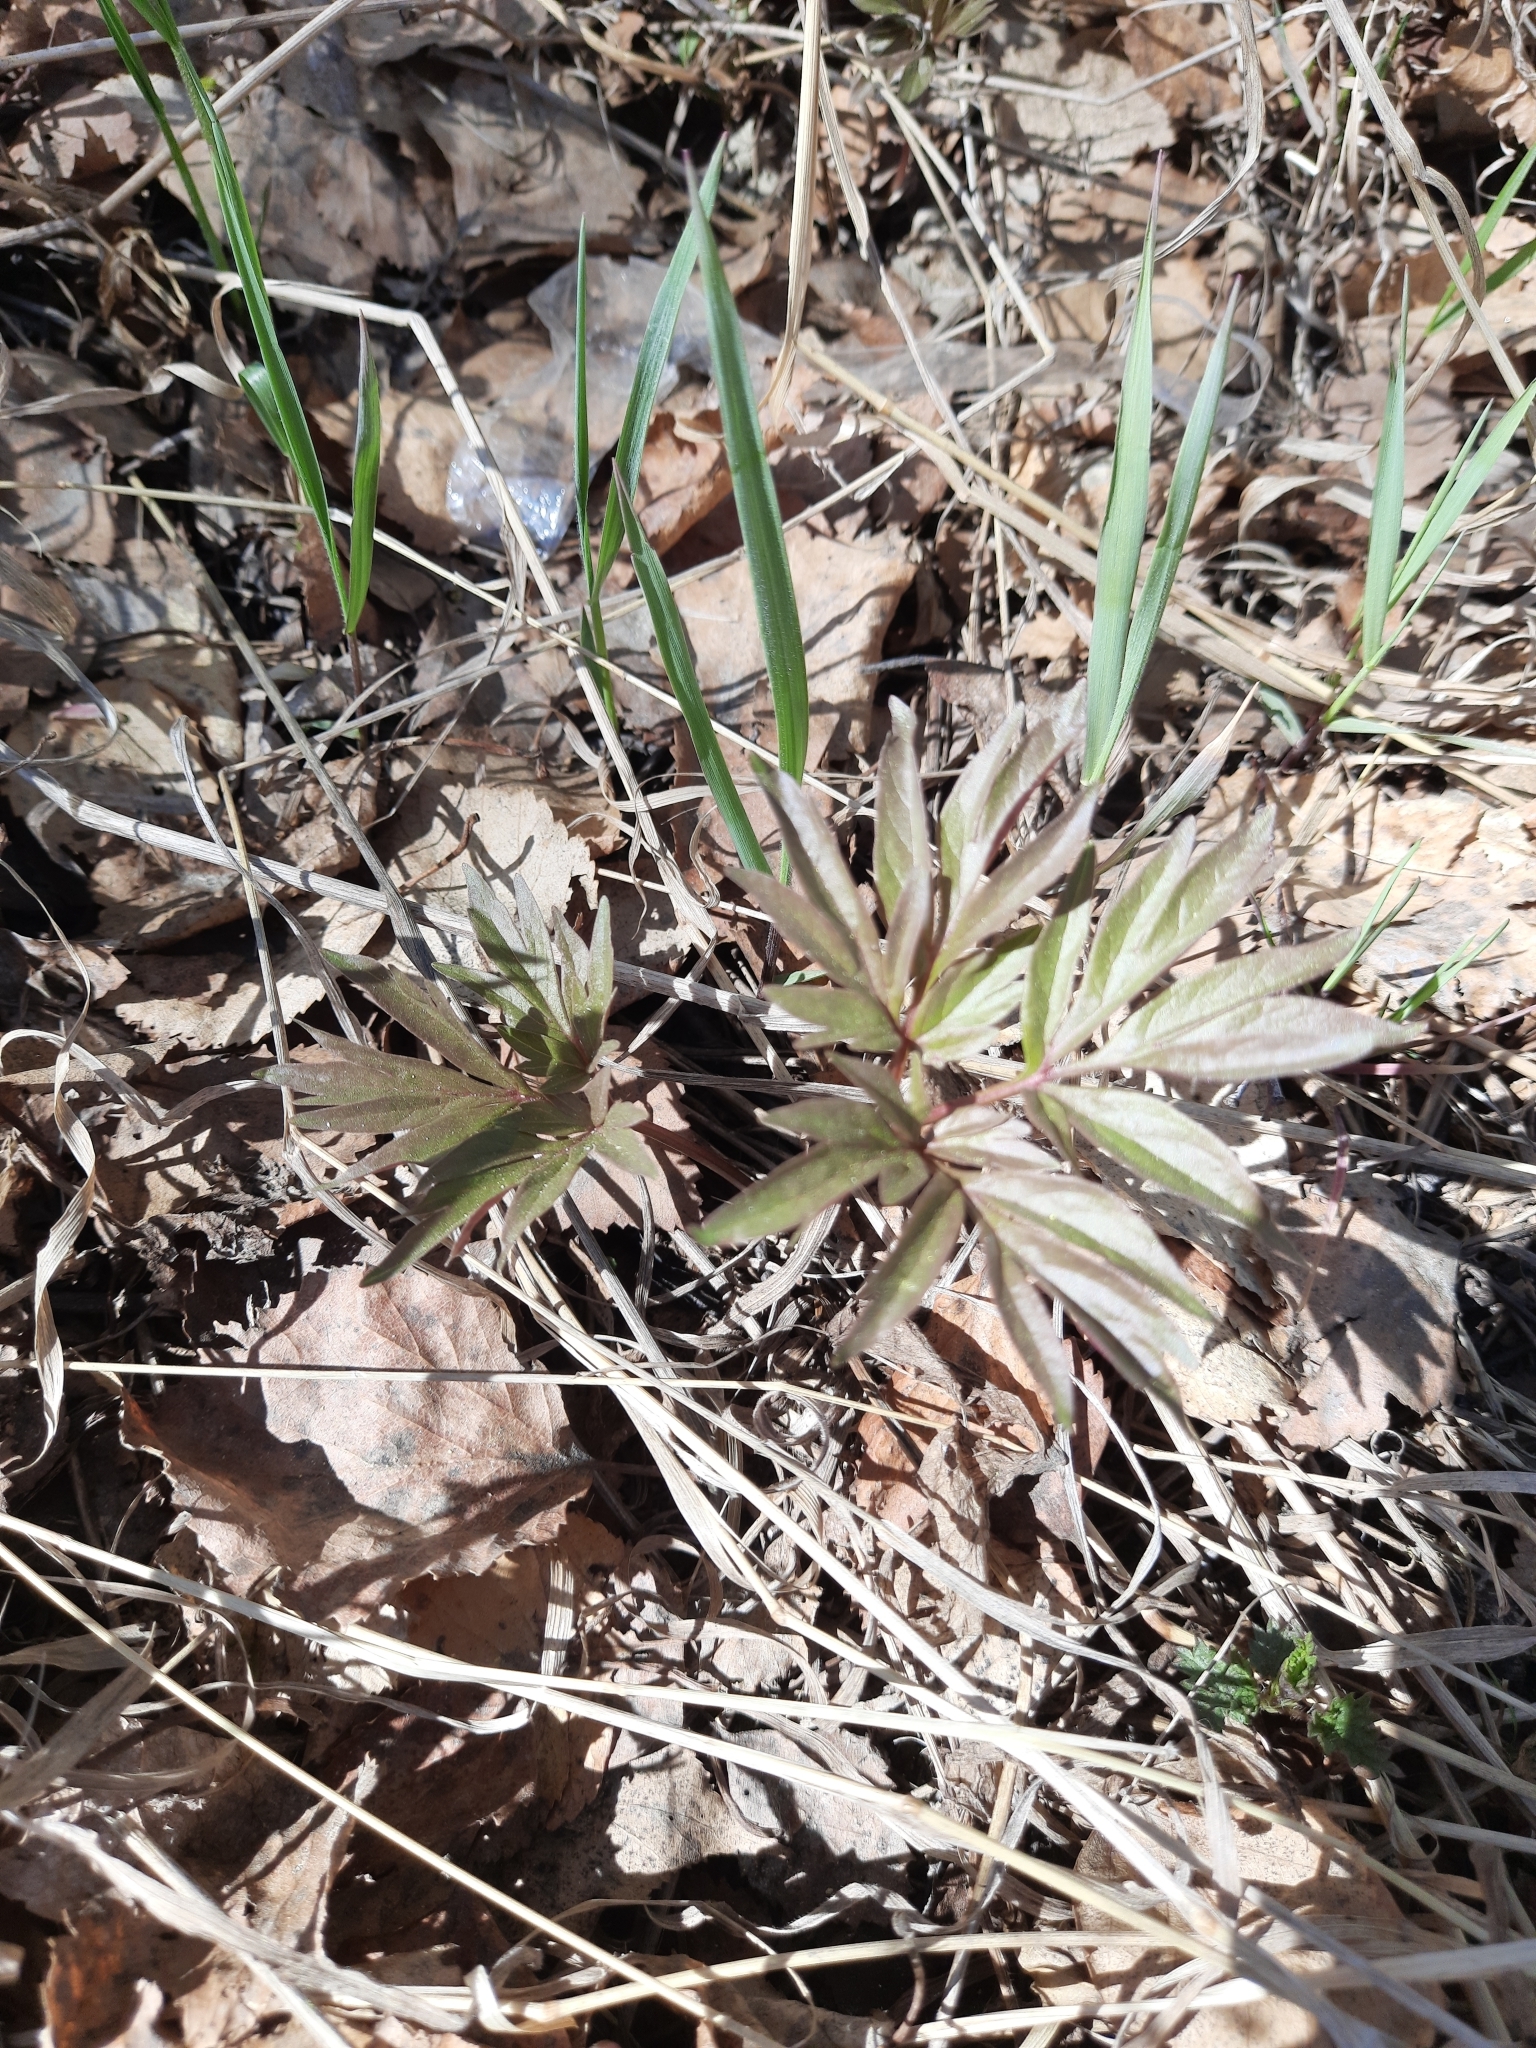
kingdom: Plantae
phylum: Tracheophyta
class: Magnoliopsida
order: Saxifragales
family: Paeoniaceae
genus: Paeonia
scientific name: Paeonia anomala
